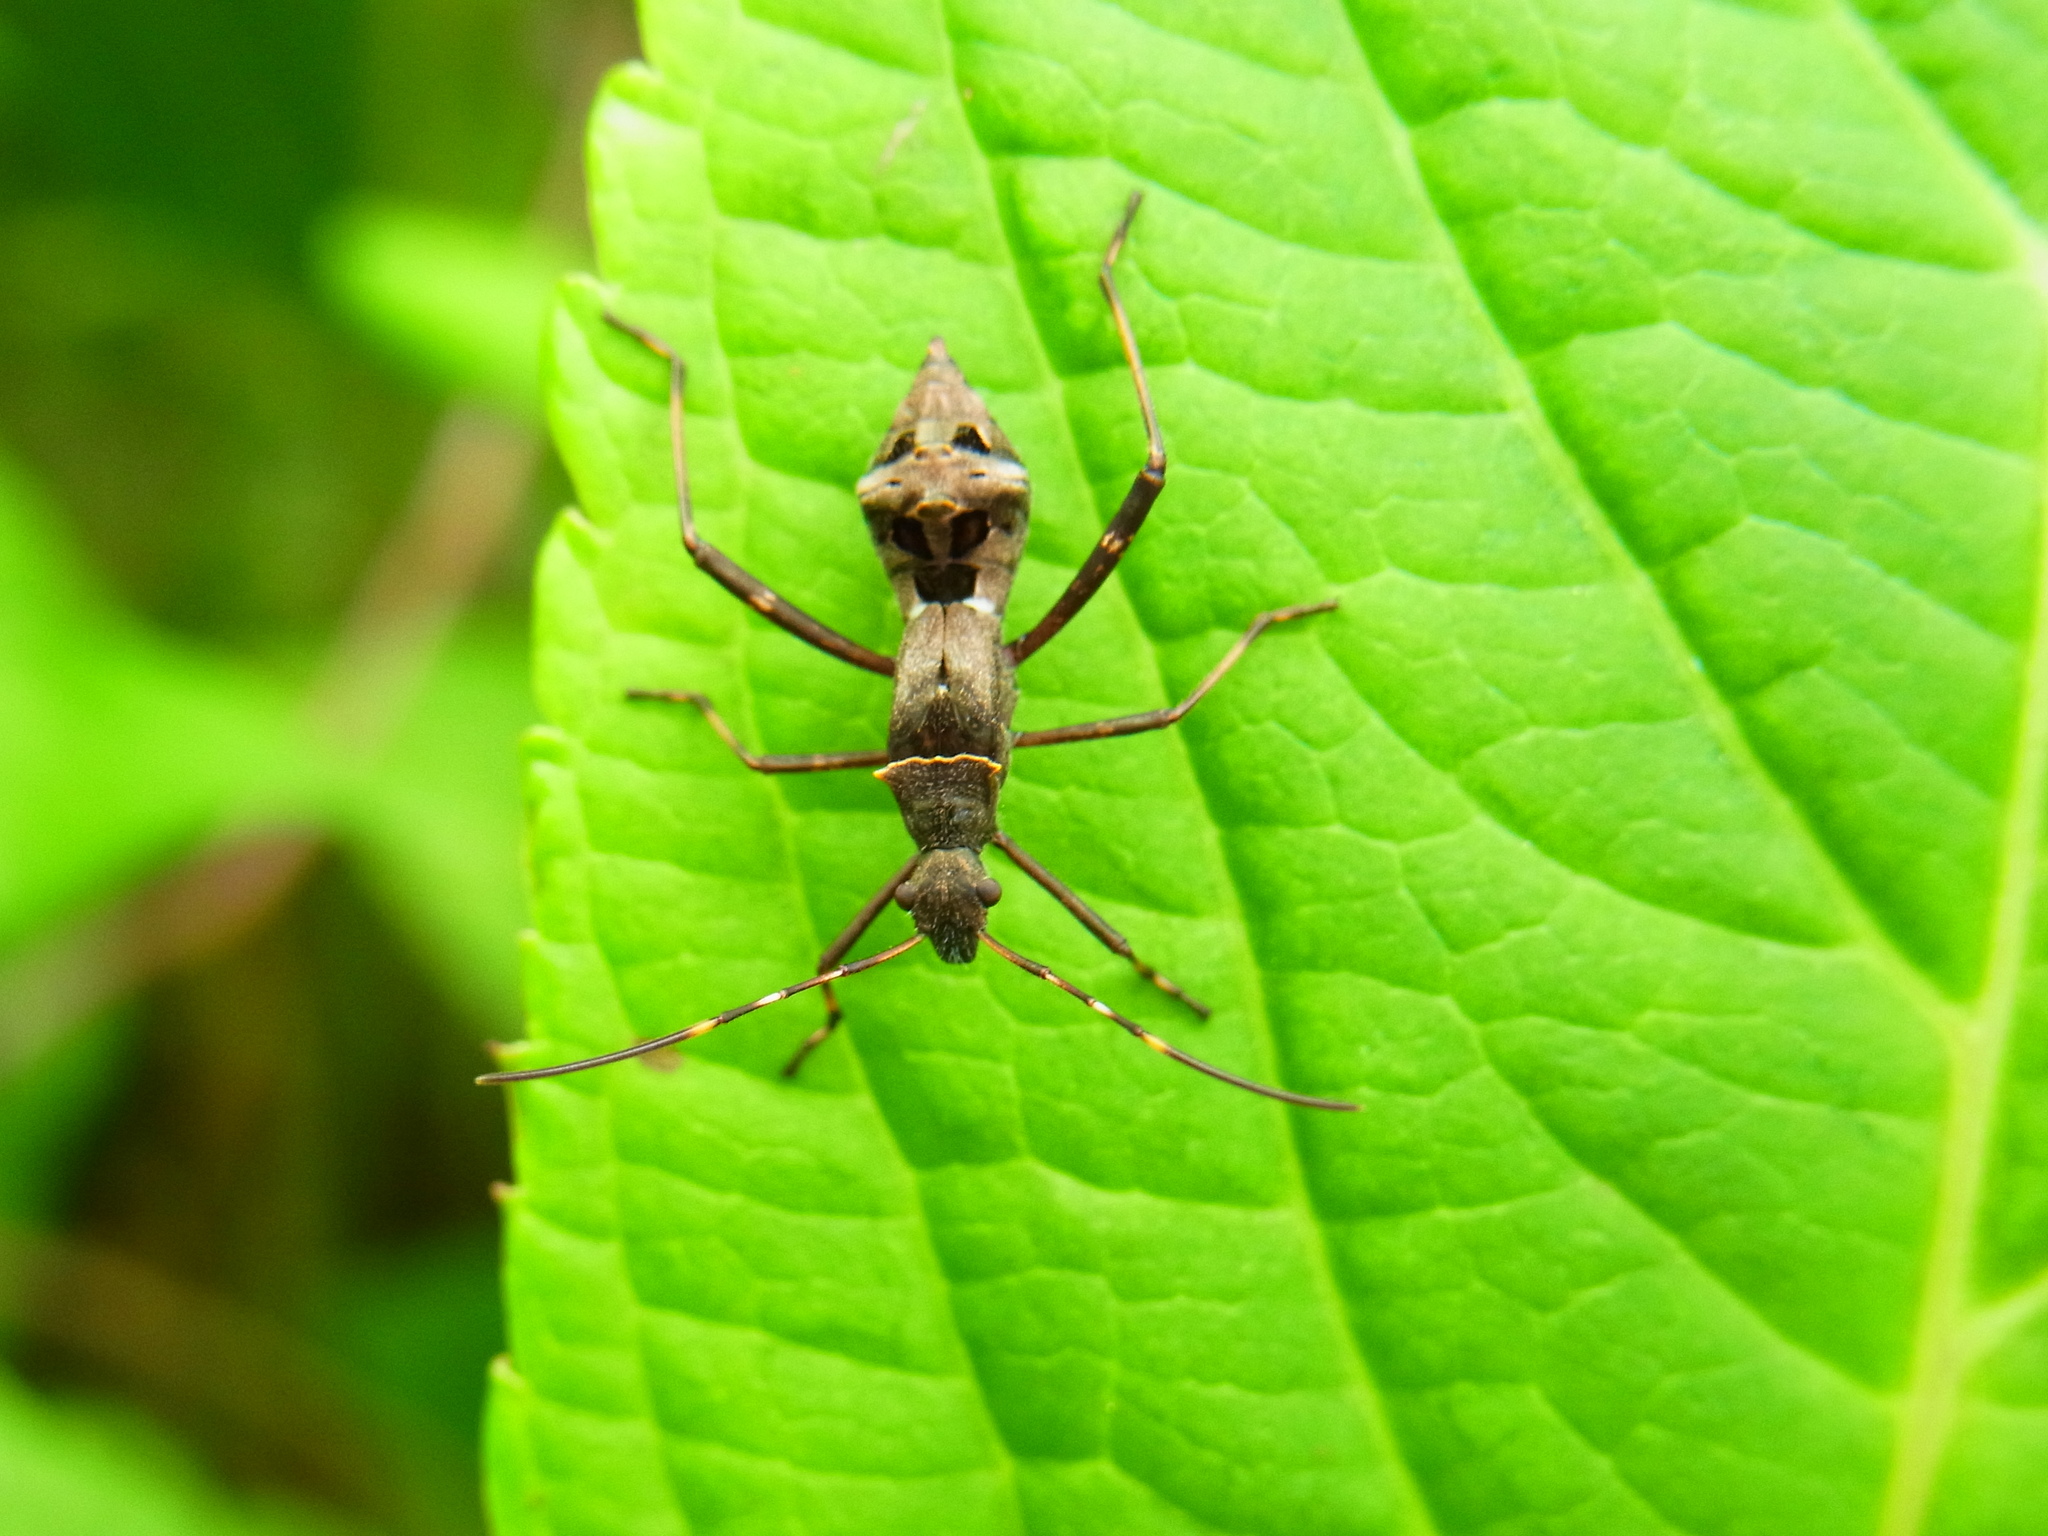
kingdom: Animalia
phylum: Arthropoda
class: Insecta
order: Hemiptera
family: Alydidae
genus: Riptortus
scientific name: Riptortus pedestris
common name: Bean bug
